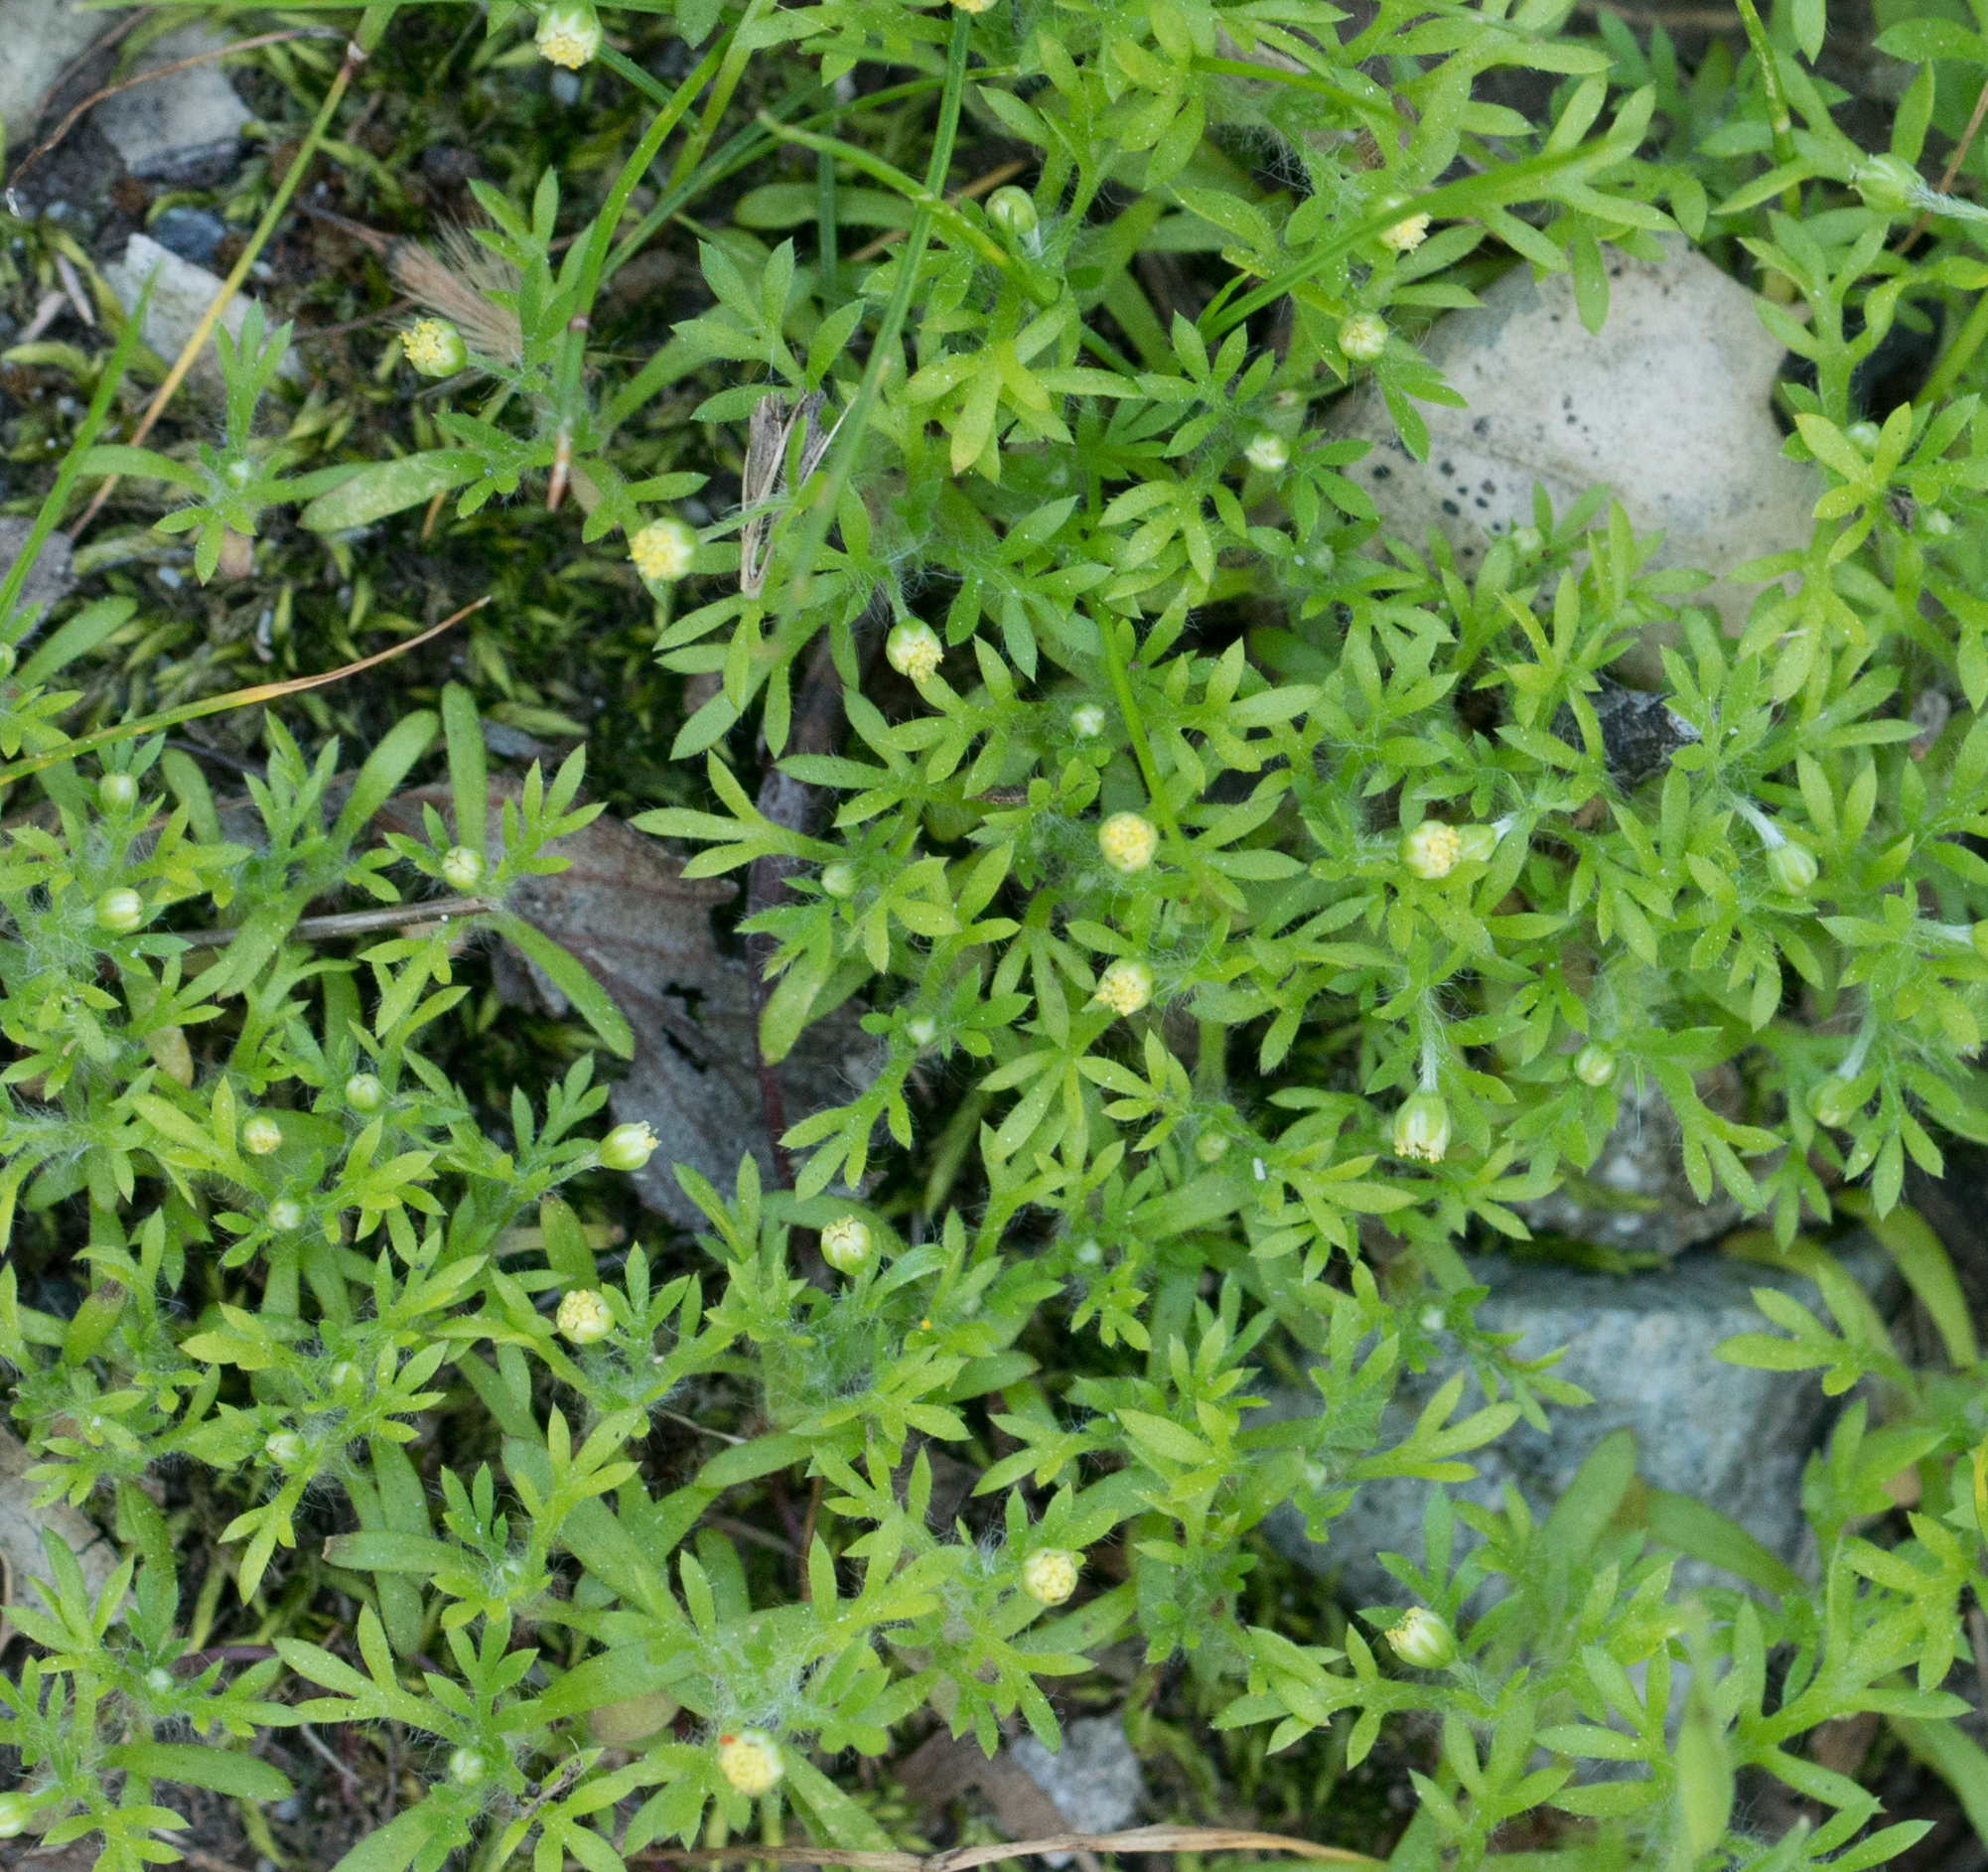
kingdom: Plantae
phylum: Tracheophyta
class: Magnoliopsida
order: Asterales
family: Asteraceae
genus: Cotula
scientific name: Cotula australis
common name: Australian waterbuttons
